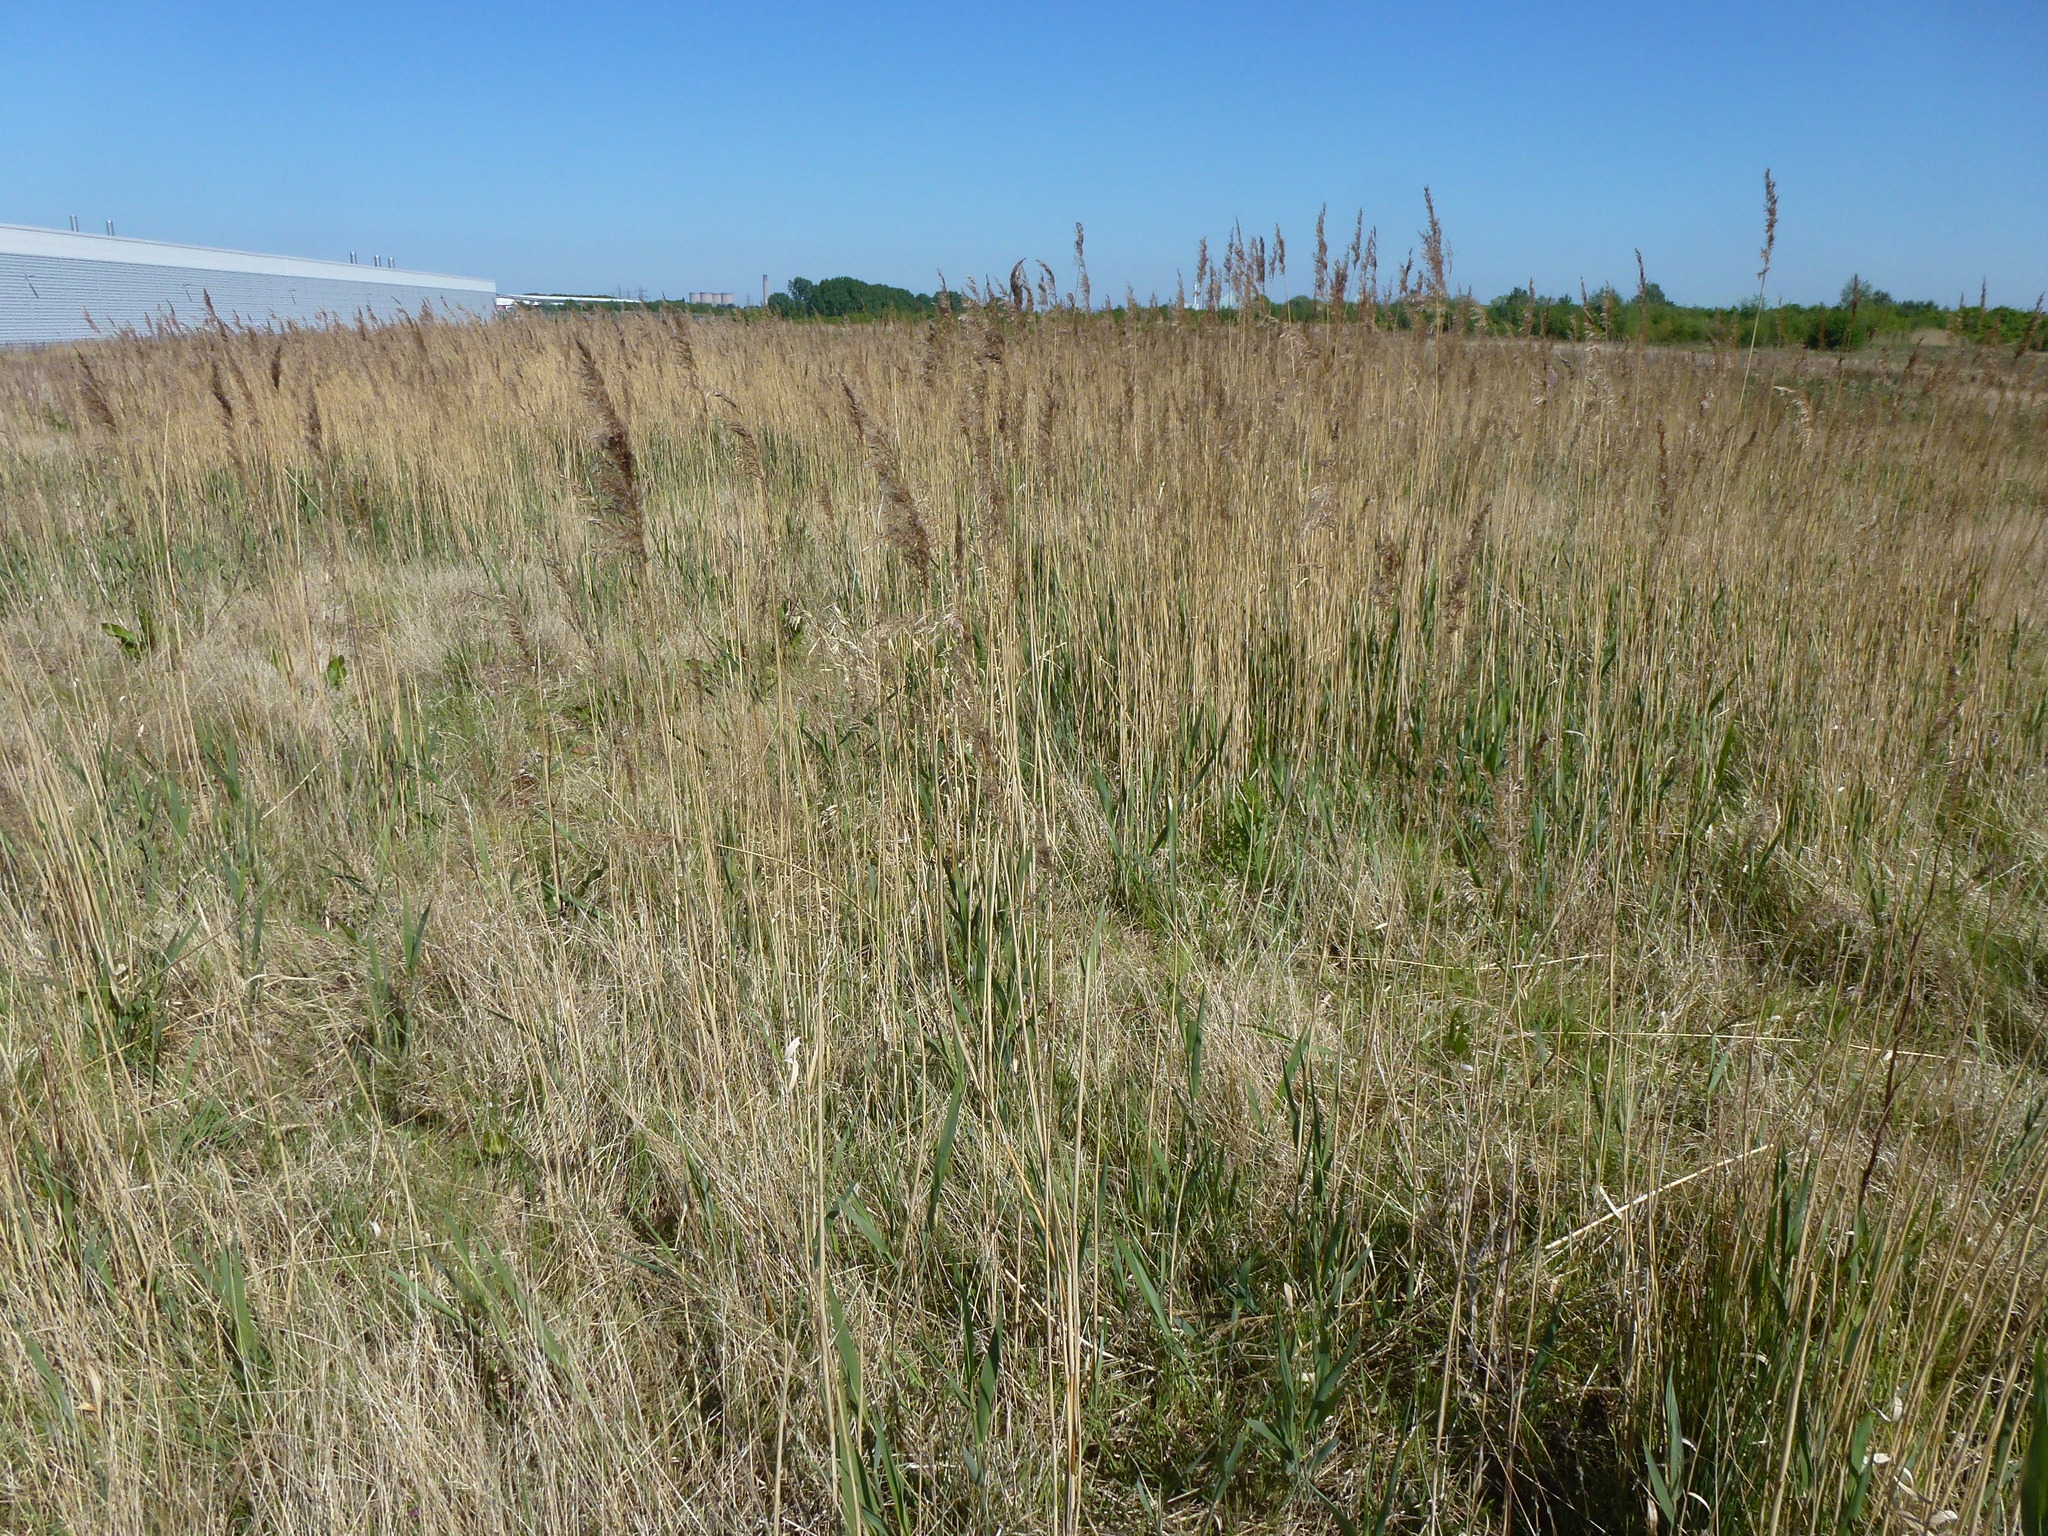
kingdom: Plantae
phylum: Tracheophyta
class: Liliopsida
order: Poales
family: Poaceae
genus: Phragmites
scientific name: Phragmites australis
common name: Common reed
